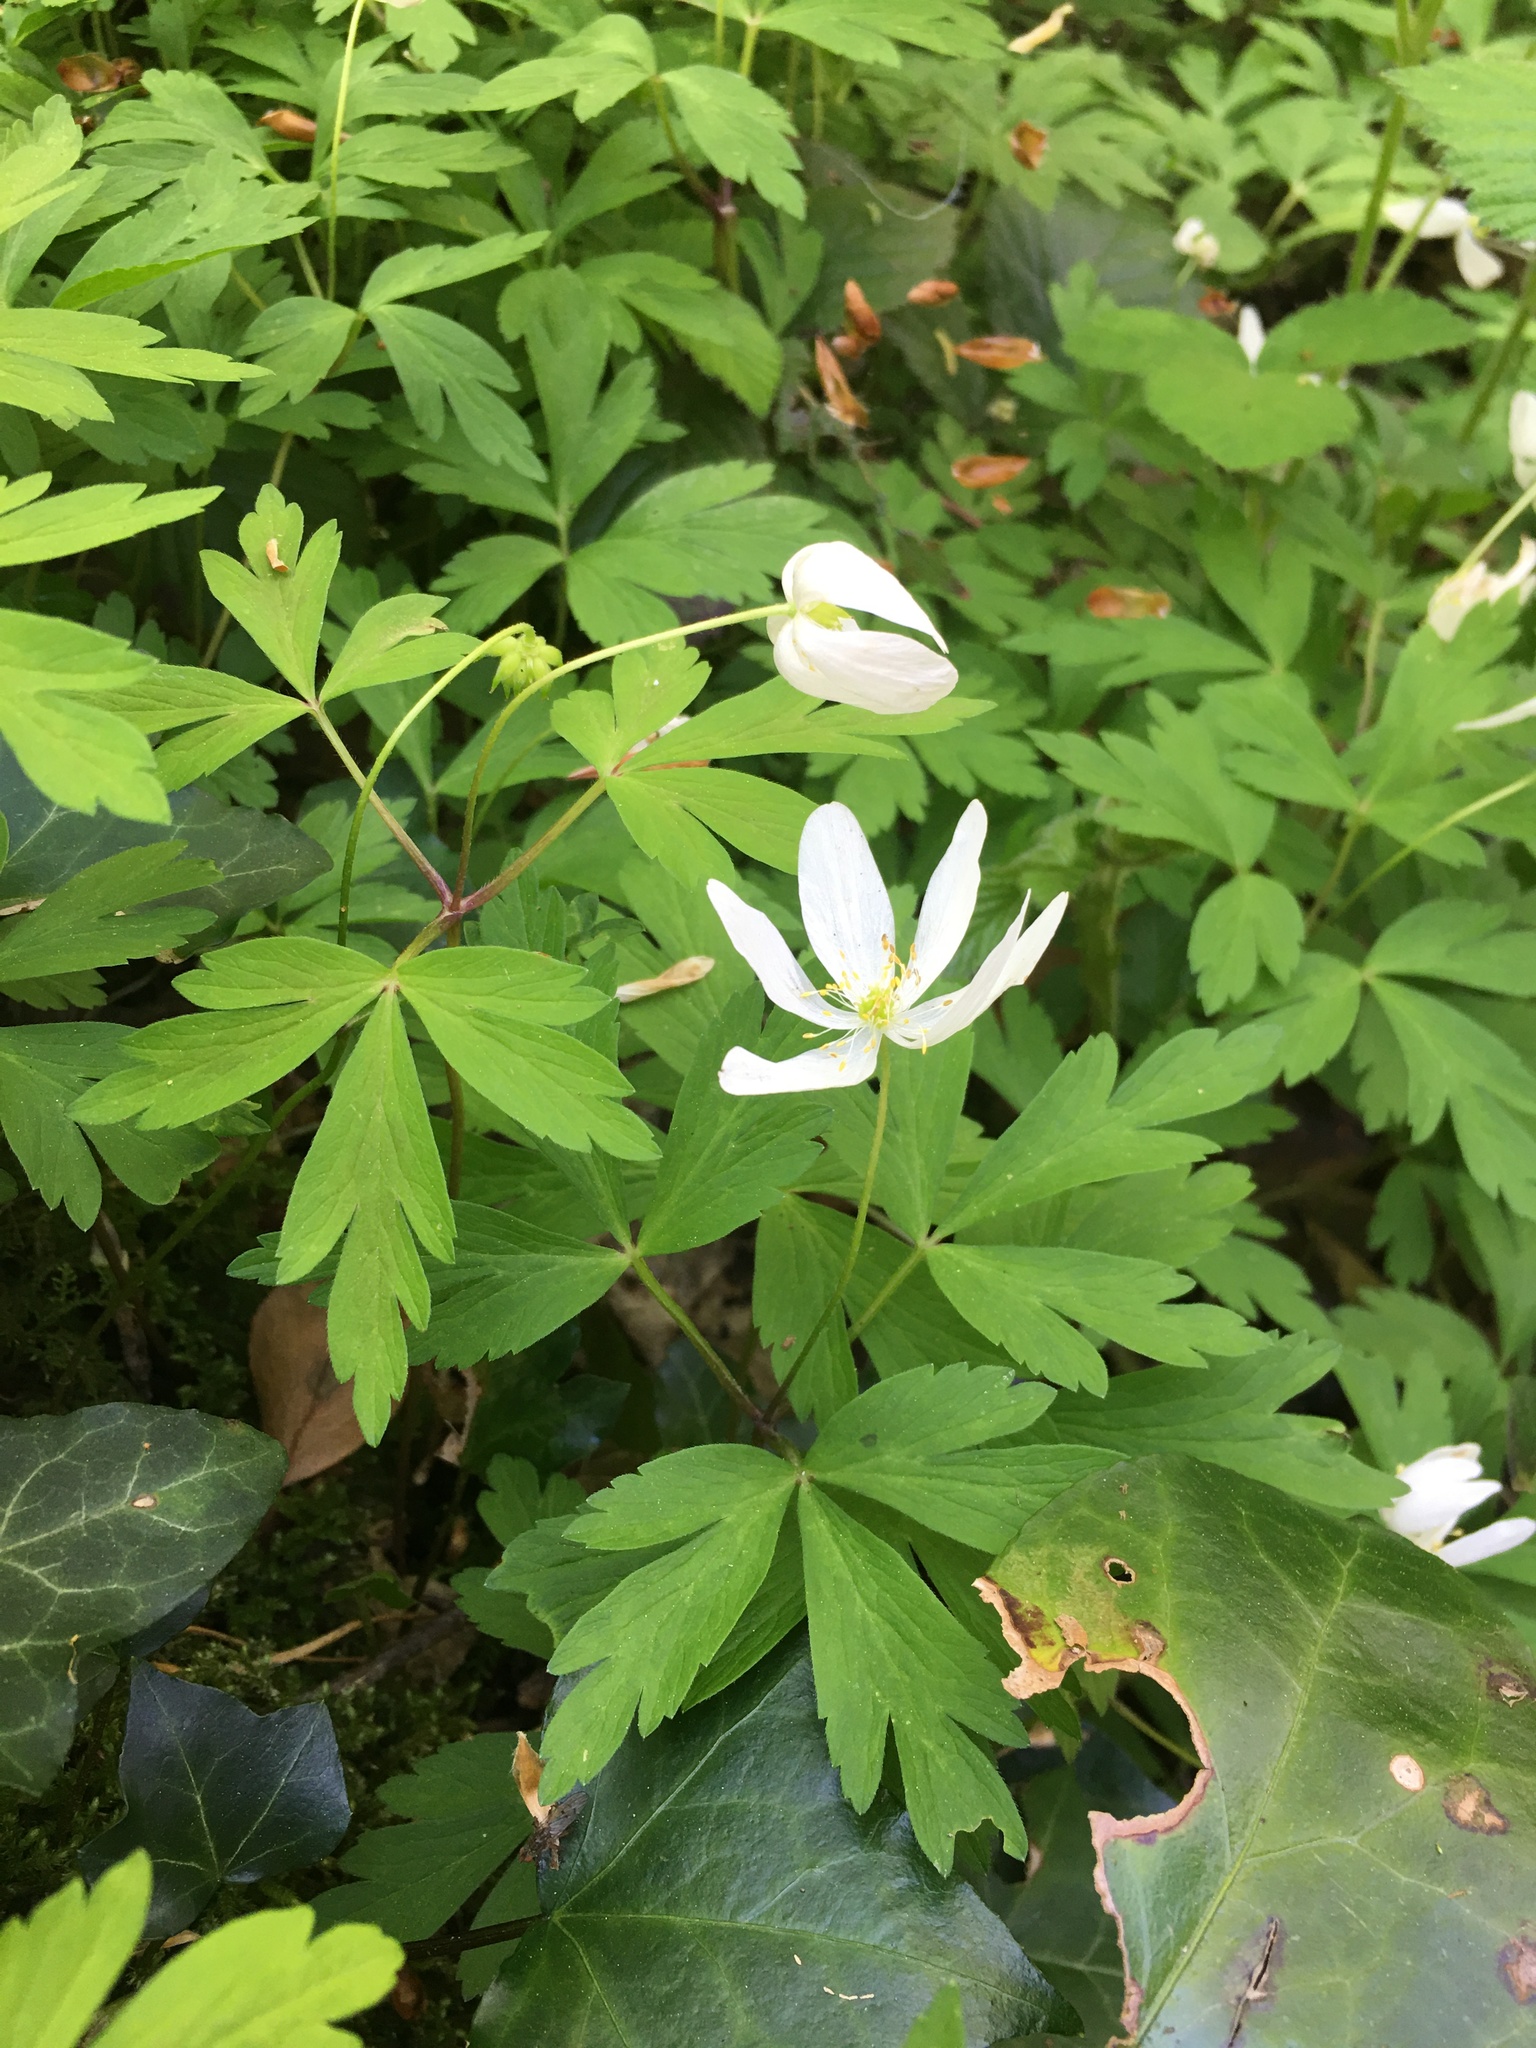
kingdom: Plantae
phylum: Tracheophyta
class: Magnoliopsida
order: Ranunculales
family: Ranunculaceae
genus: Anemone
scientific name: Anemone nemorosa
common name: Wood anemone
